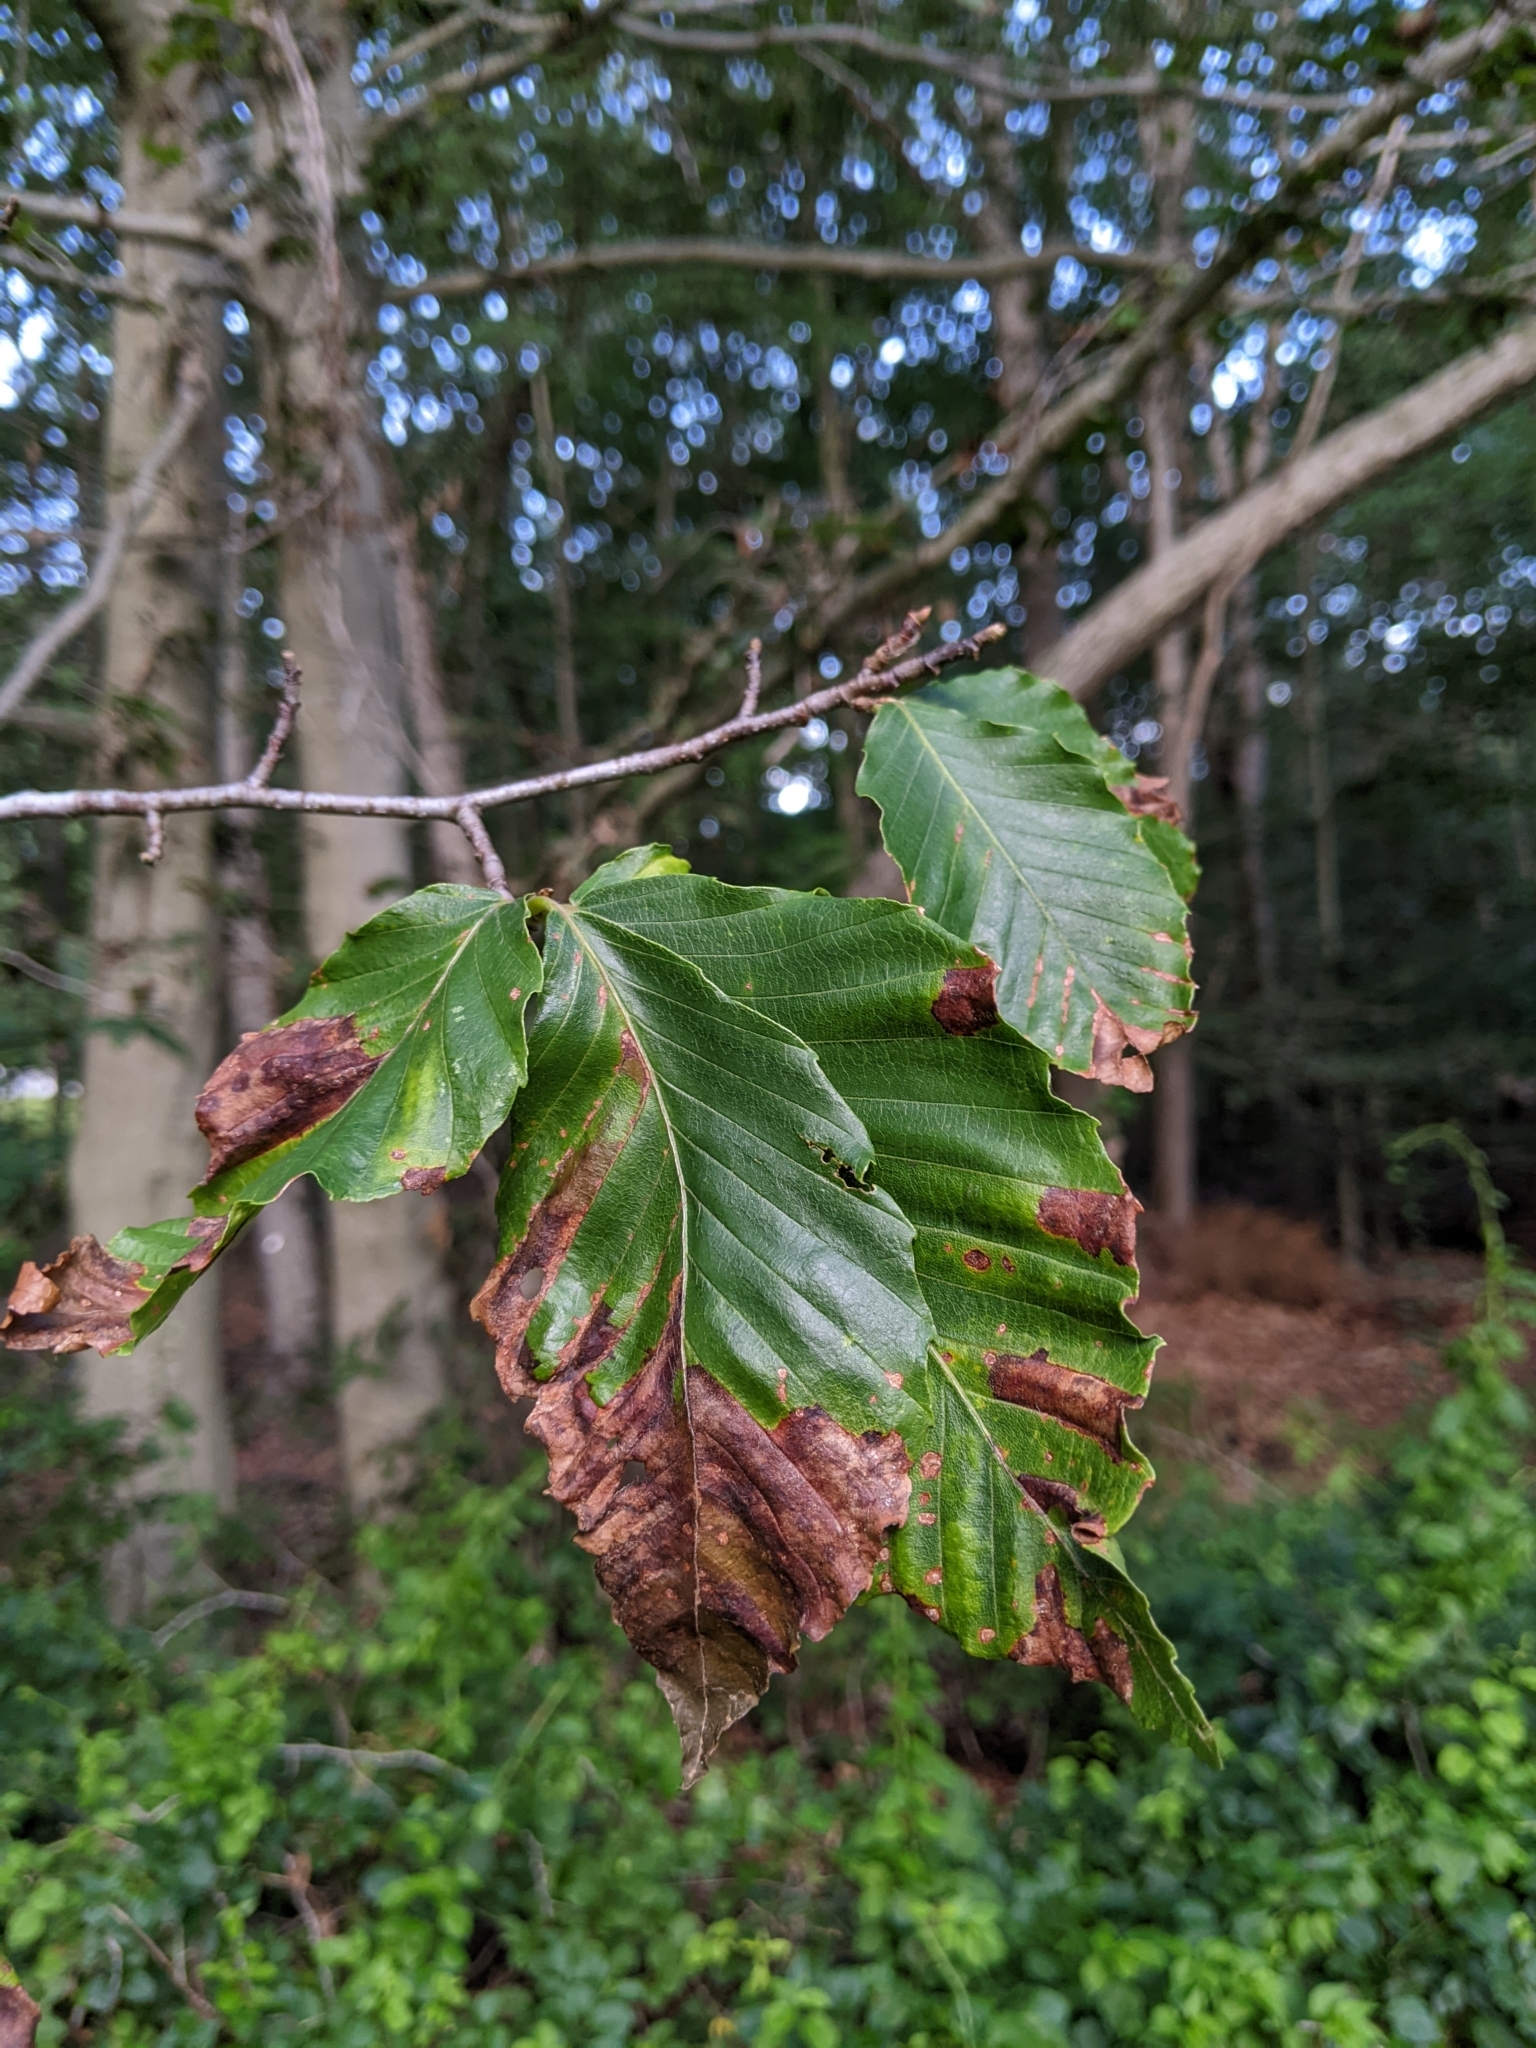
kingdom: Animalia
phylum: Nematoda
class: Chromadorea
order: Rhabditida
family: Anguinidae
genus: Litylenchus
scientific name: Litylenchus crenatae
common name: Beech leaf disease
